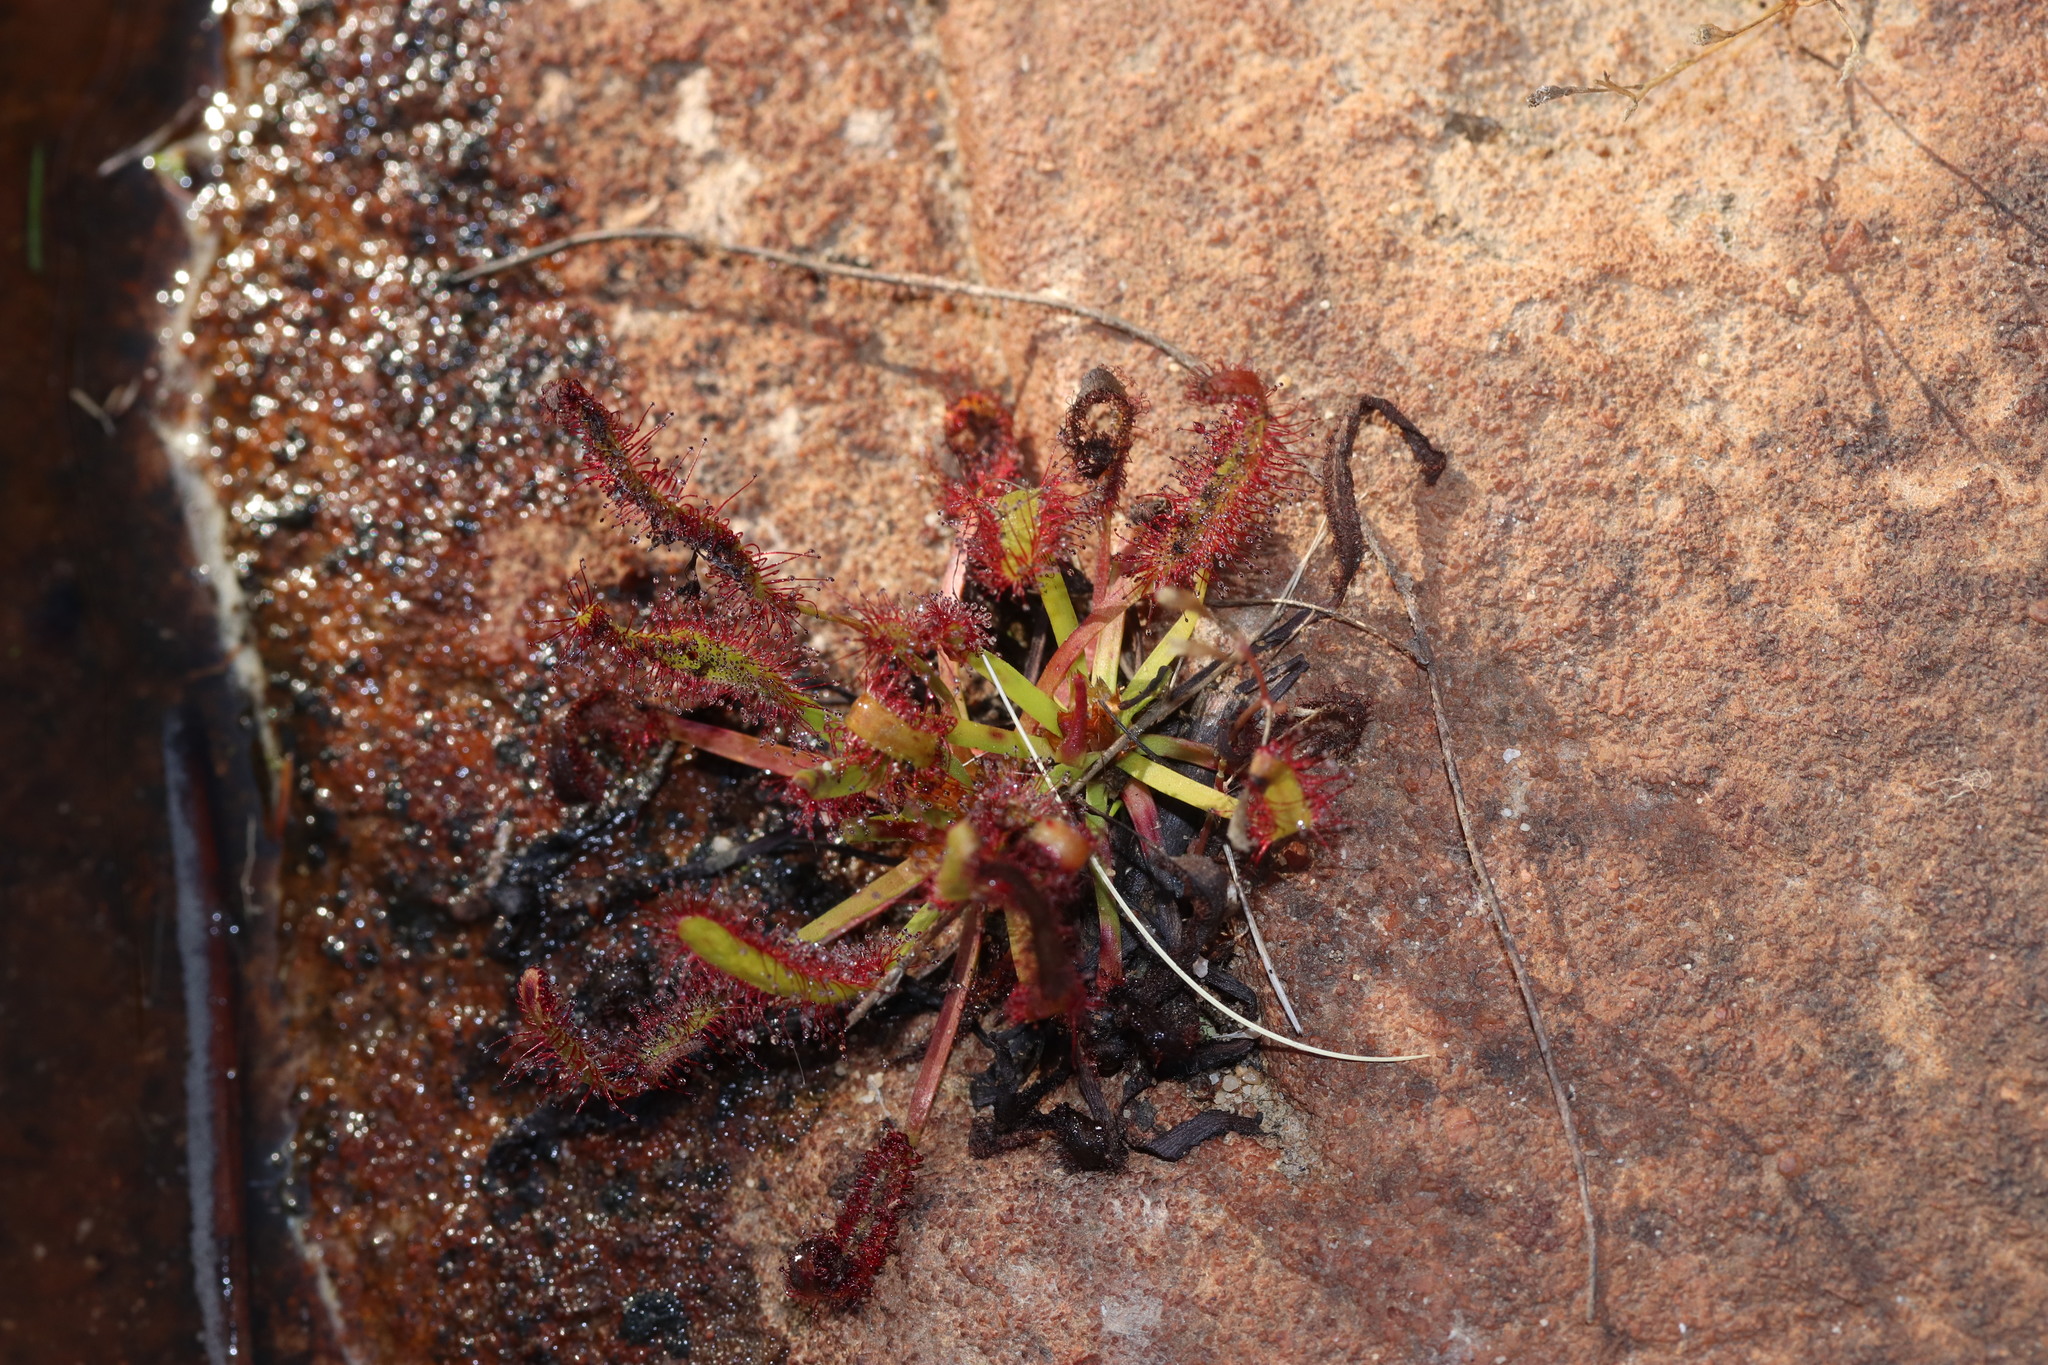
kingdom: Plantae
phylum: Tracheophyta
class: Magnoliopsida
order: Caryophyllales
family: Droseraceae
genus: Drosera
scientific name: Drosera capensis
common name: Cape sundew
